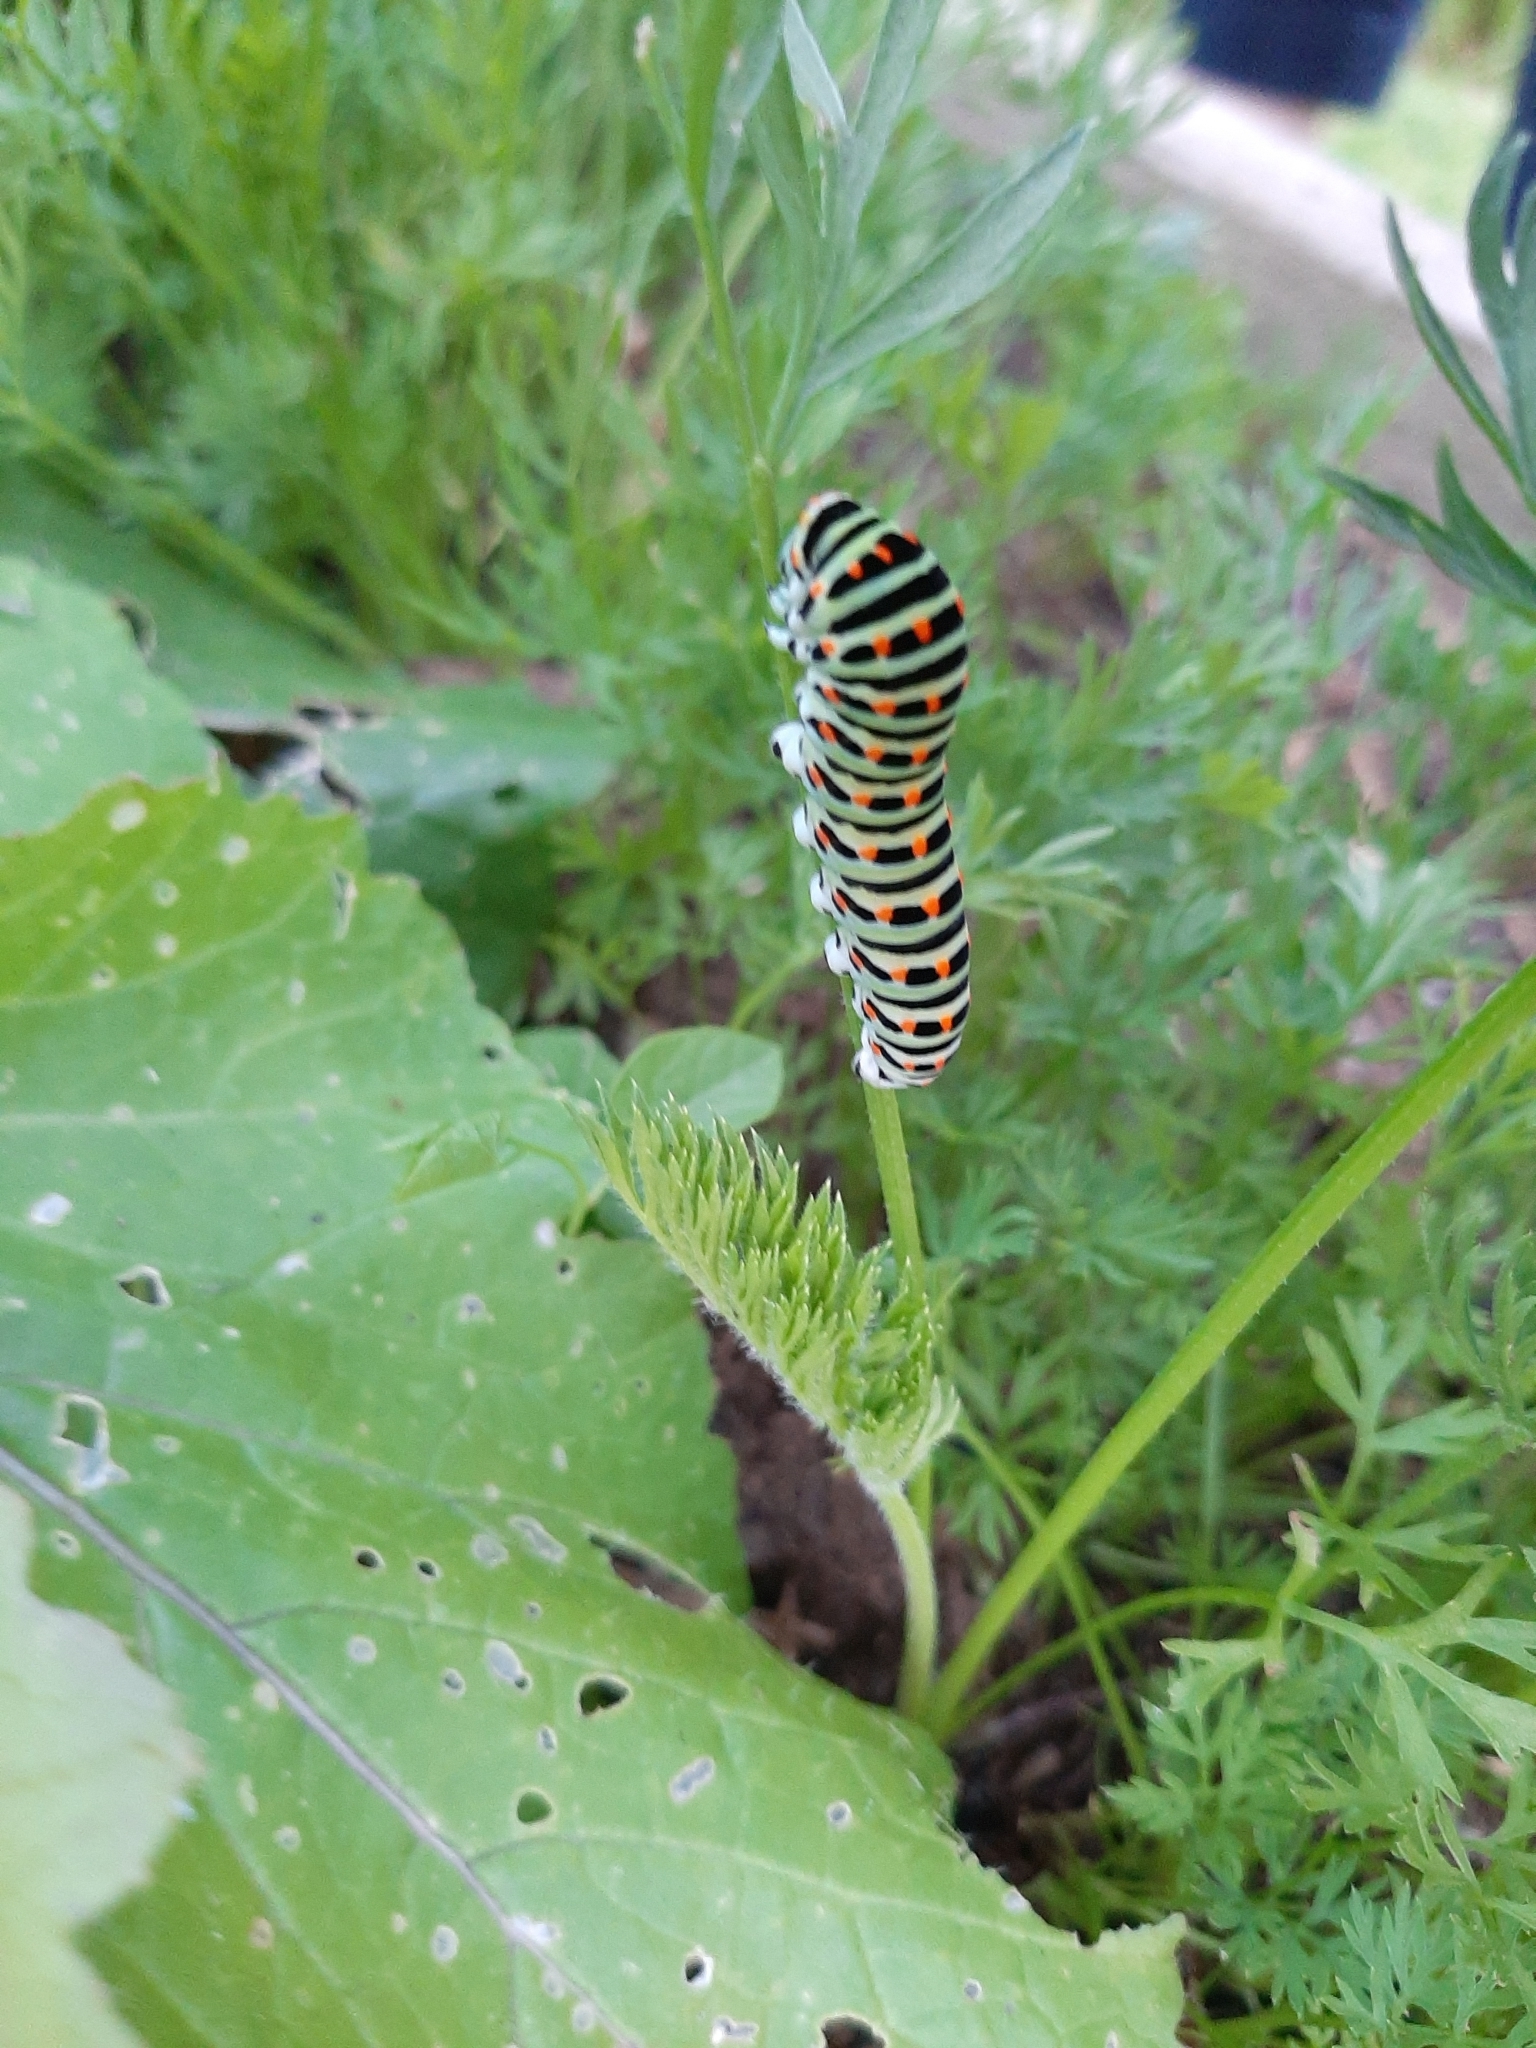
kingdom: Animalia
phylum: Arthropoda
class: Insecta
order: Lepidoptera
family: Papilionidae
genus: Papilio
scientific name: Papilio machaon
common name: Swallowtail
